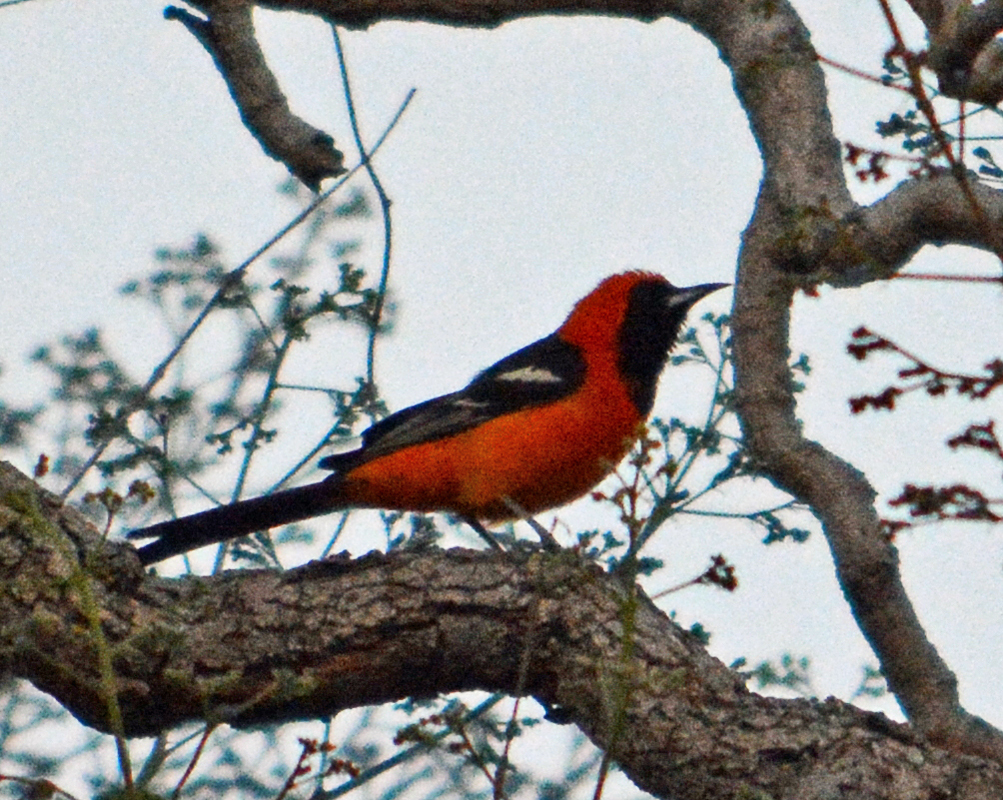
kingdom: Animalia
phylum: Chordata
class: Aves
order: Passeriformes
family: Icteridae
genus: Icterus
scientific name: Icterus cucullatus
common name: Hooded oriole
